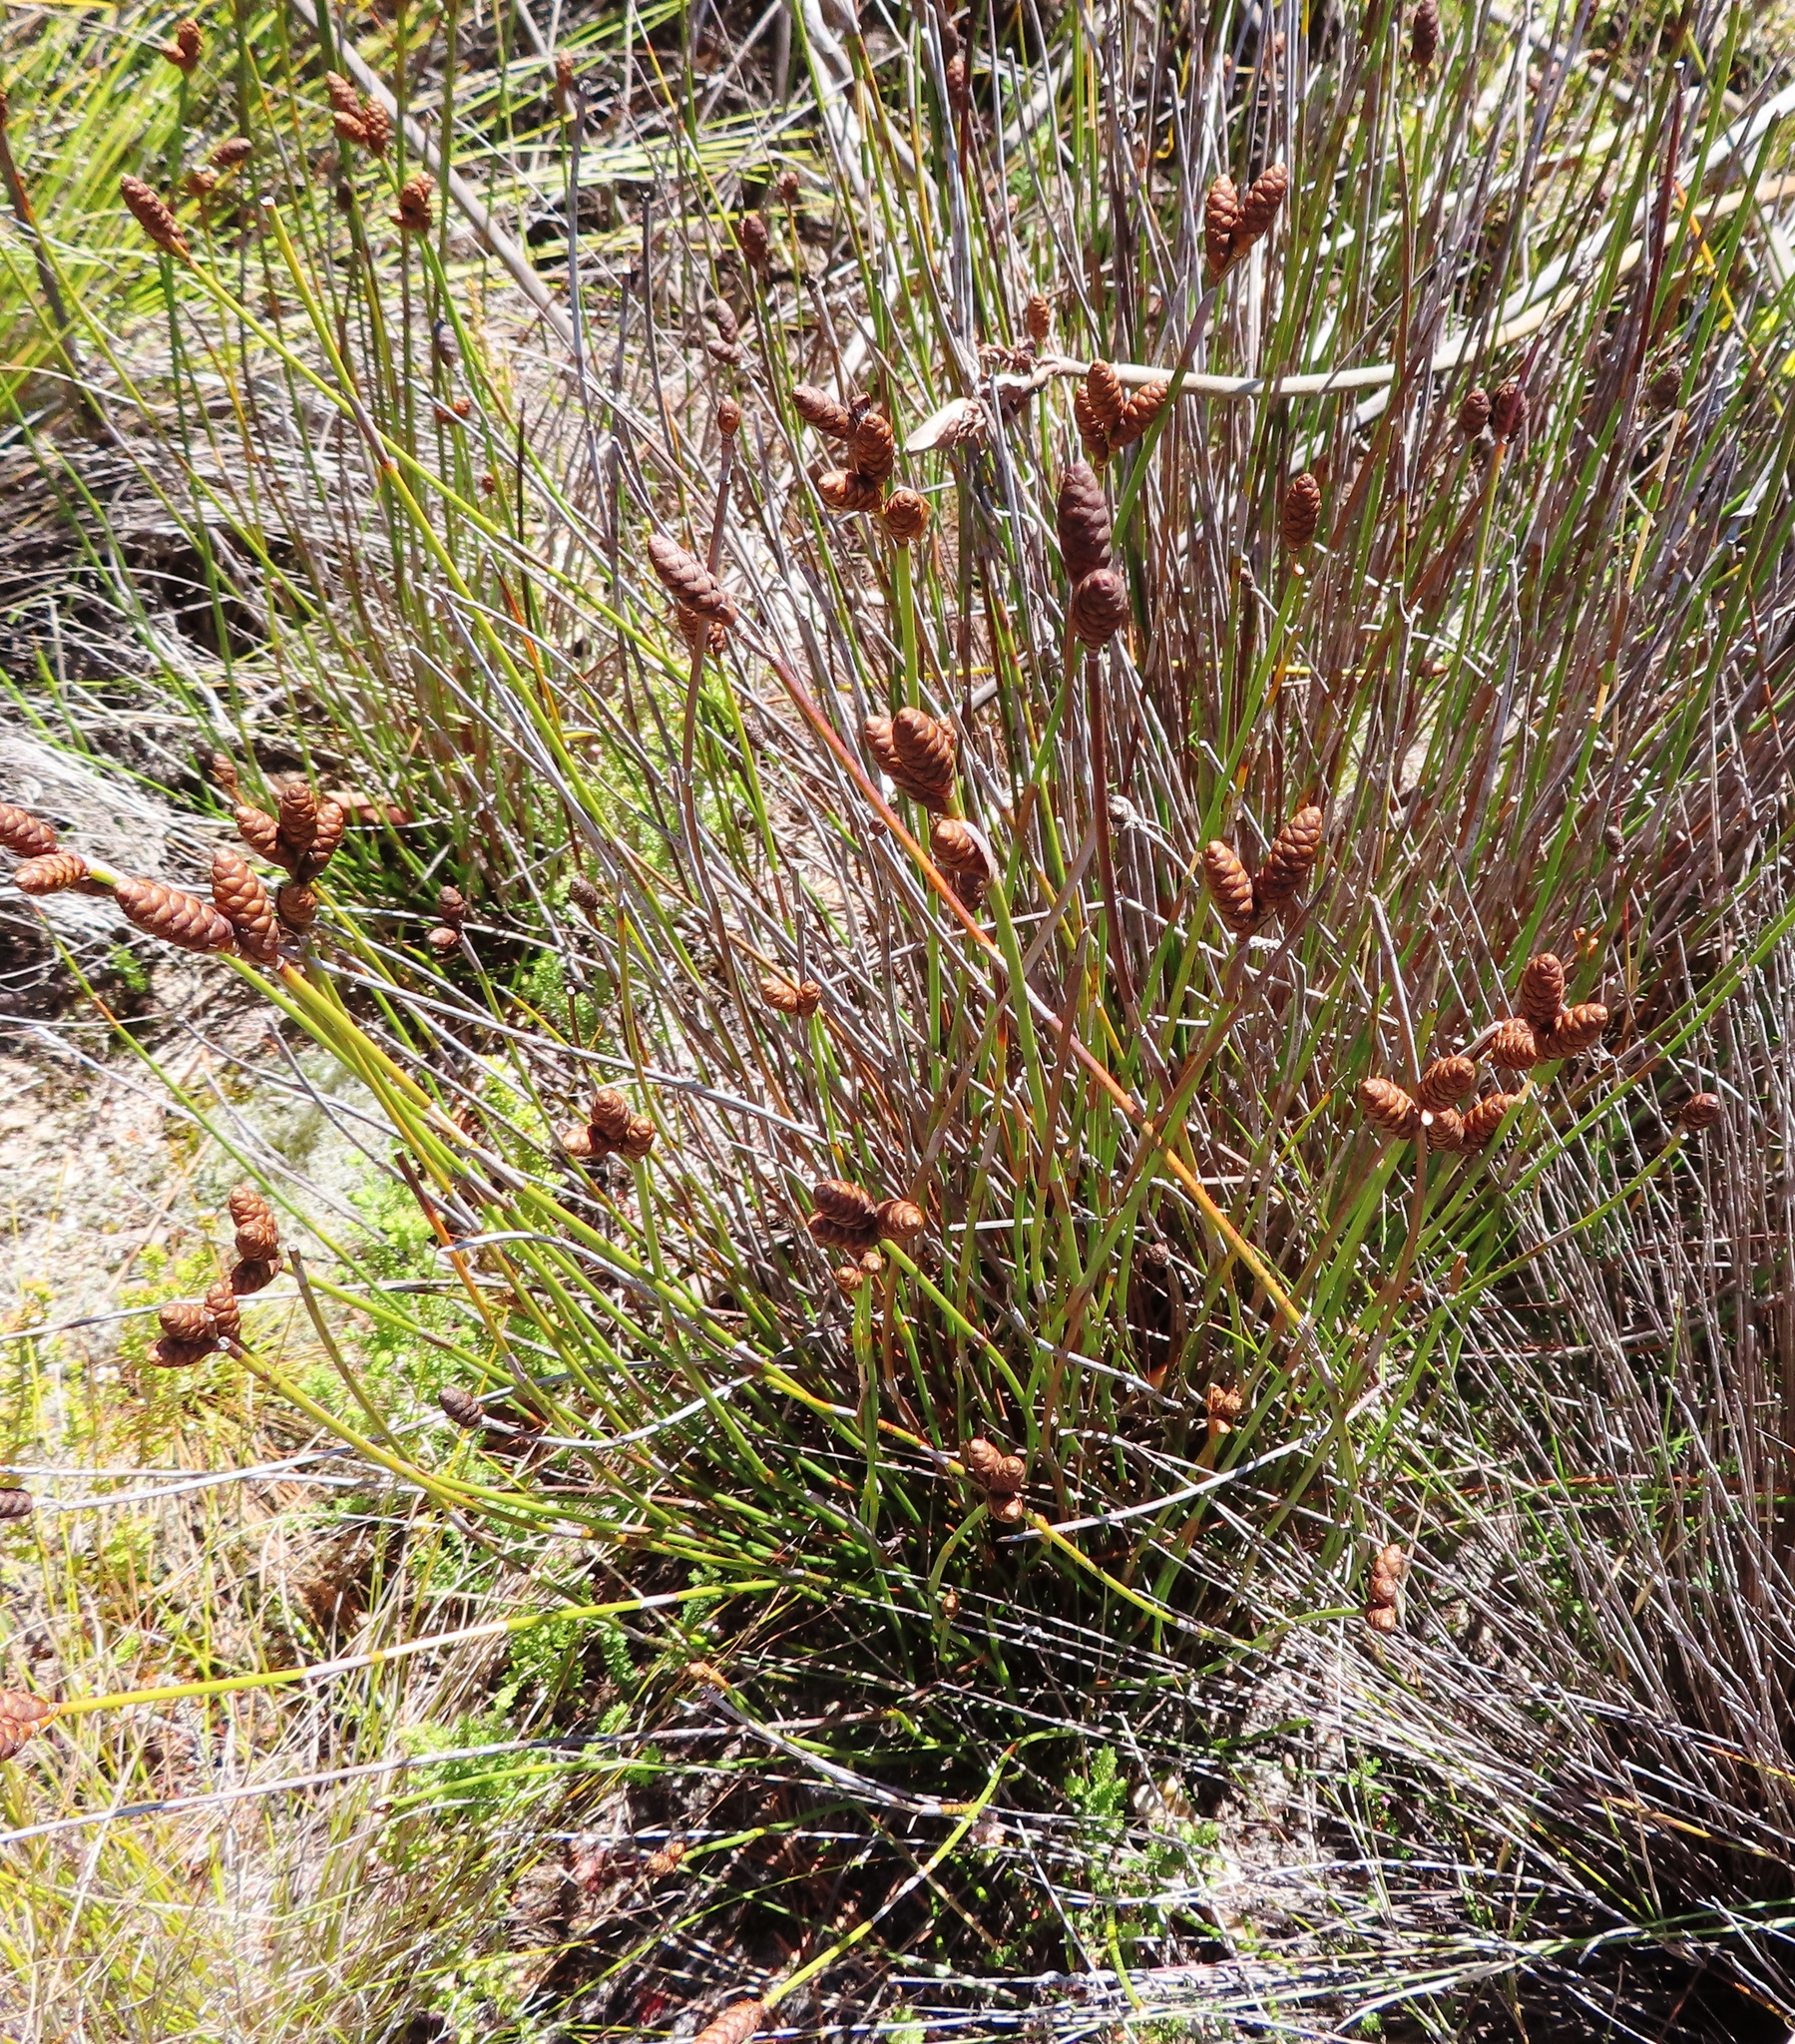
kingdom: Plantae
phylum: Tracheophyta
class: Liliopsida
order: Poales
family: Restionaceae
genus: Nevillea
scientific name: Nevillea obtusissimus
